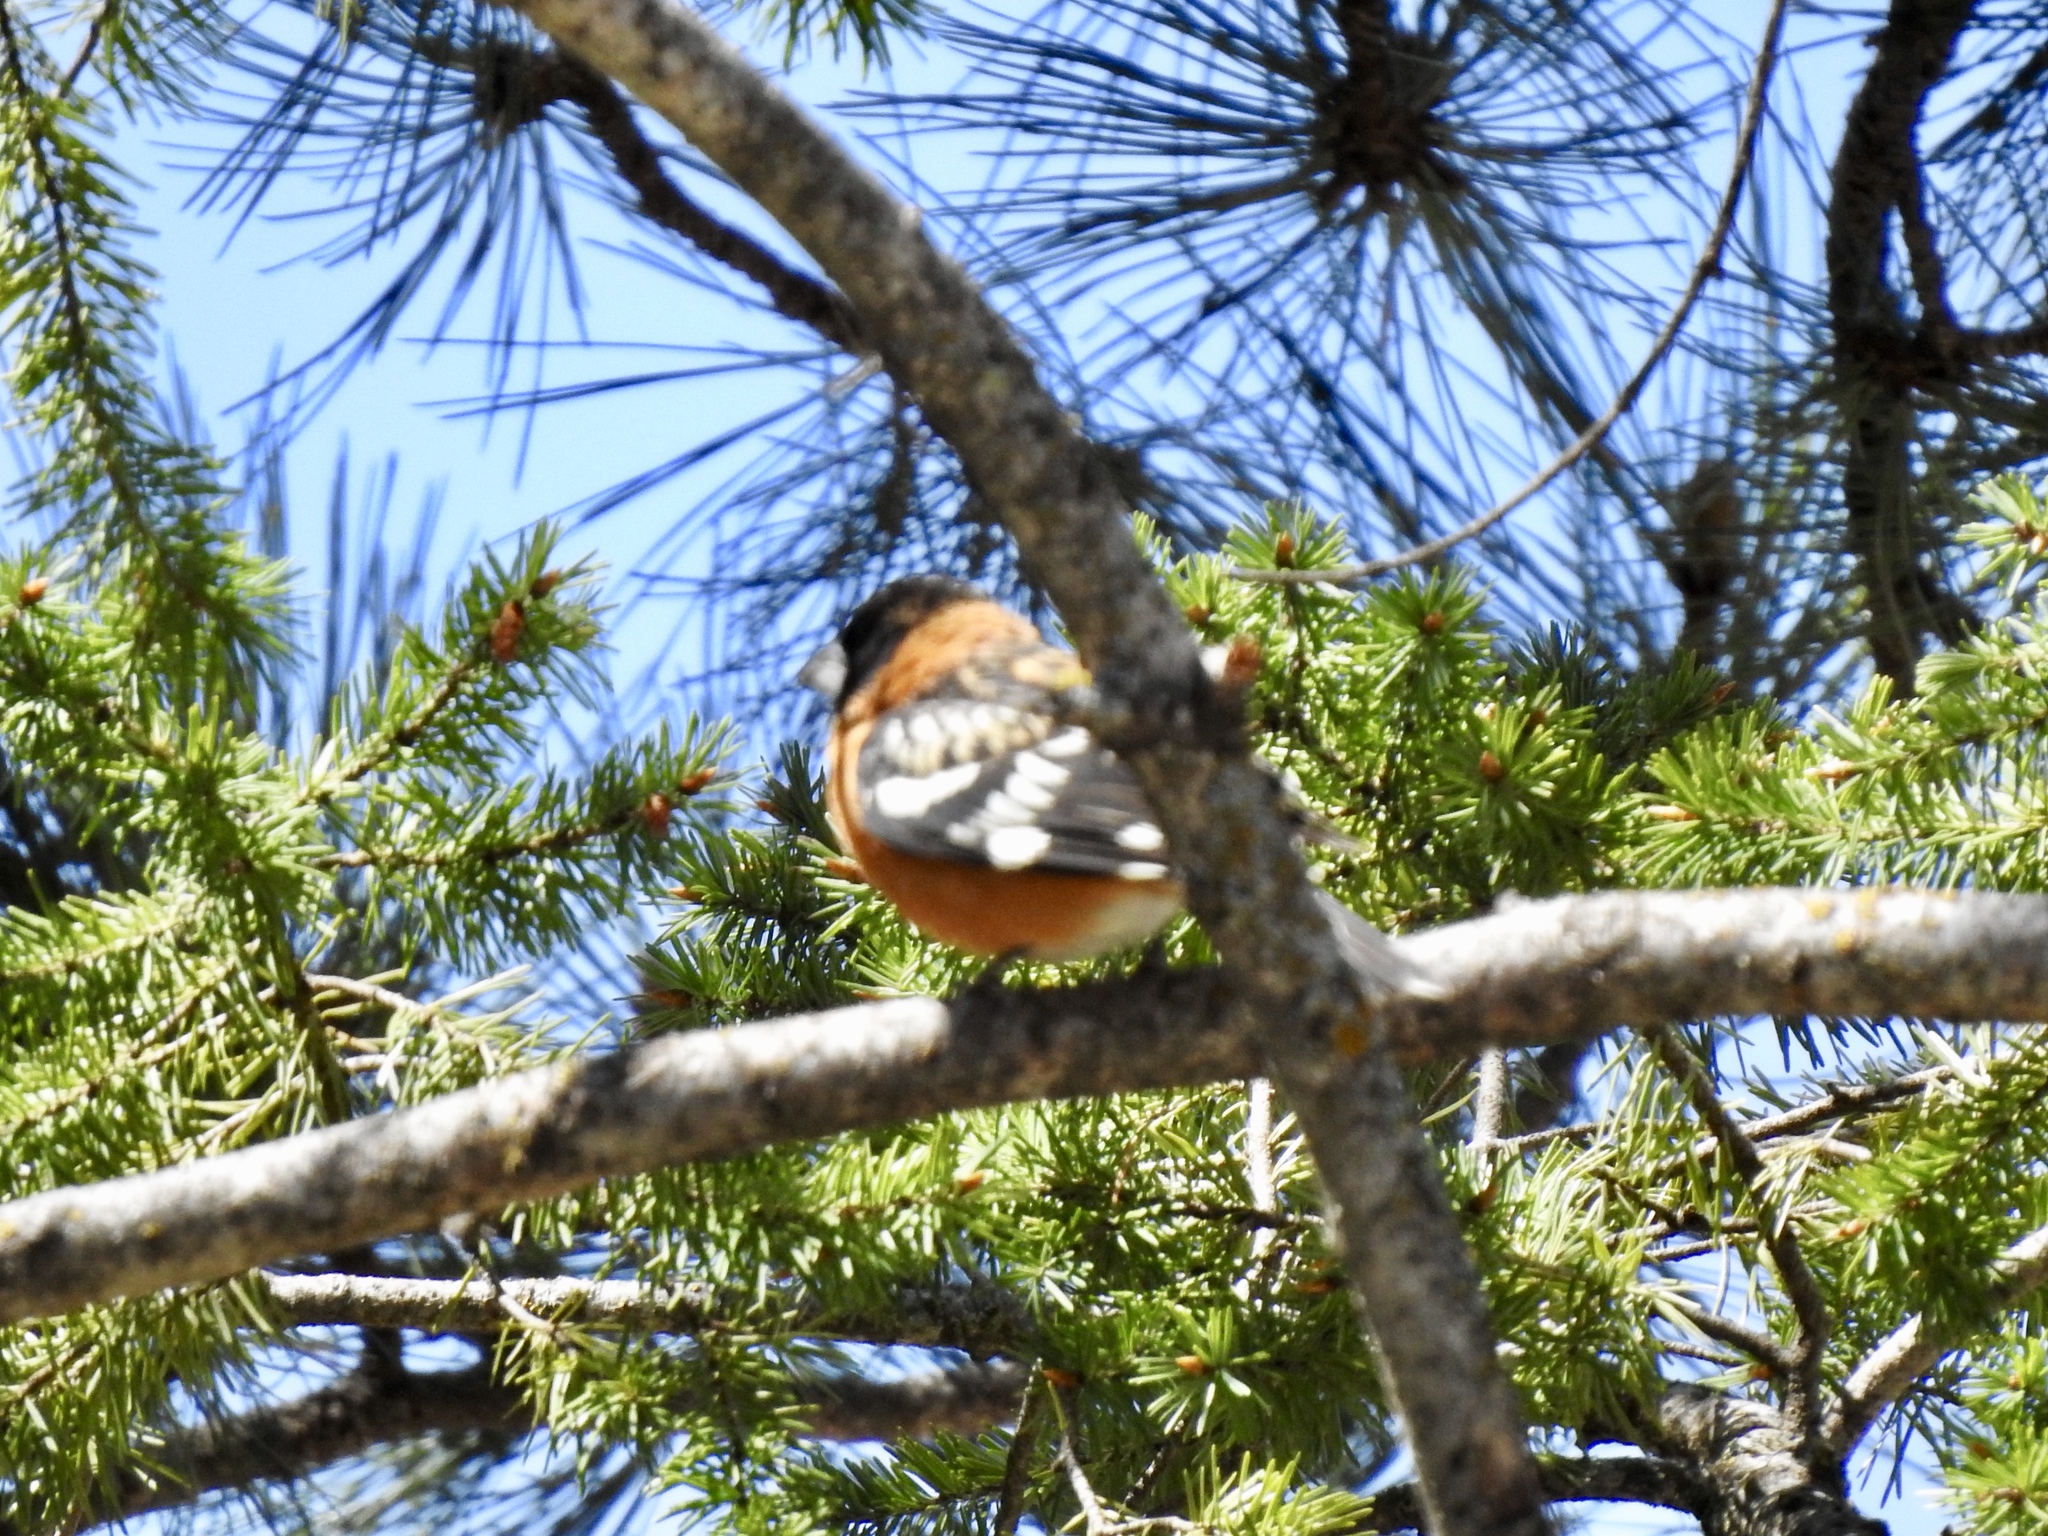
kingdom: Animalia
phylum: Chordata
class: Aves
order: Passeriformes
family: Cardinalidae
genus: Pheucticus
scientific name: Pheucticus melanocephalus
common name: Black-headed grosbeak
